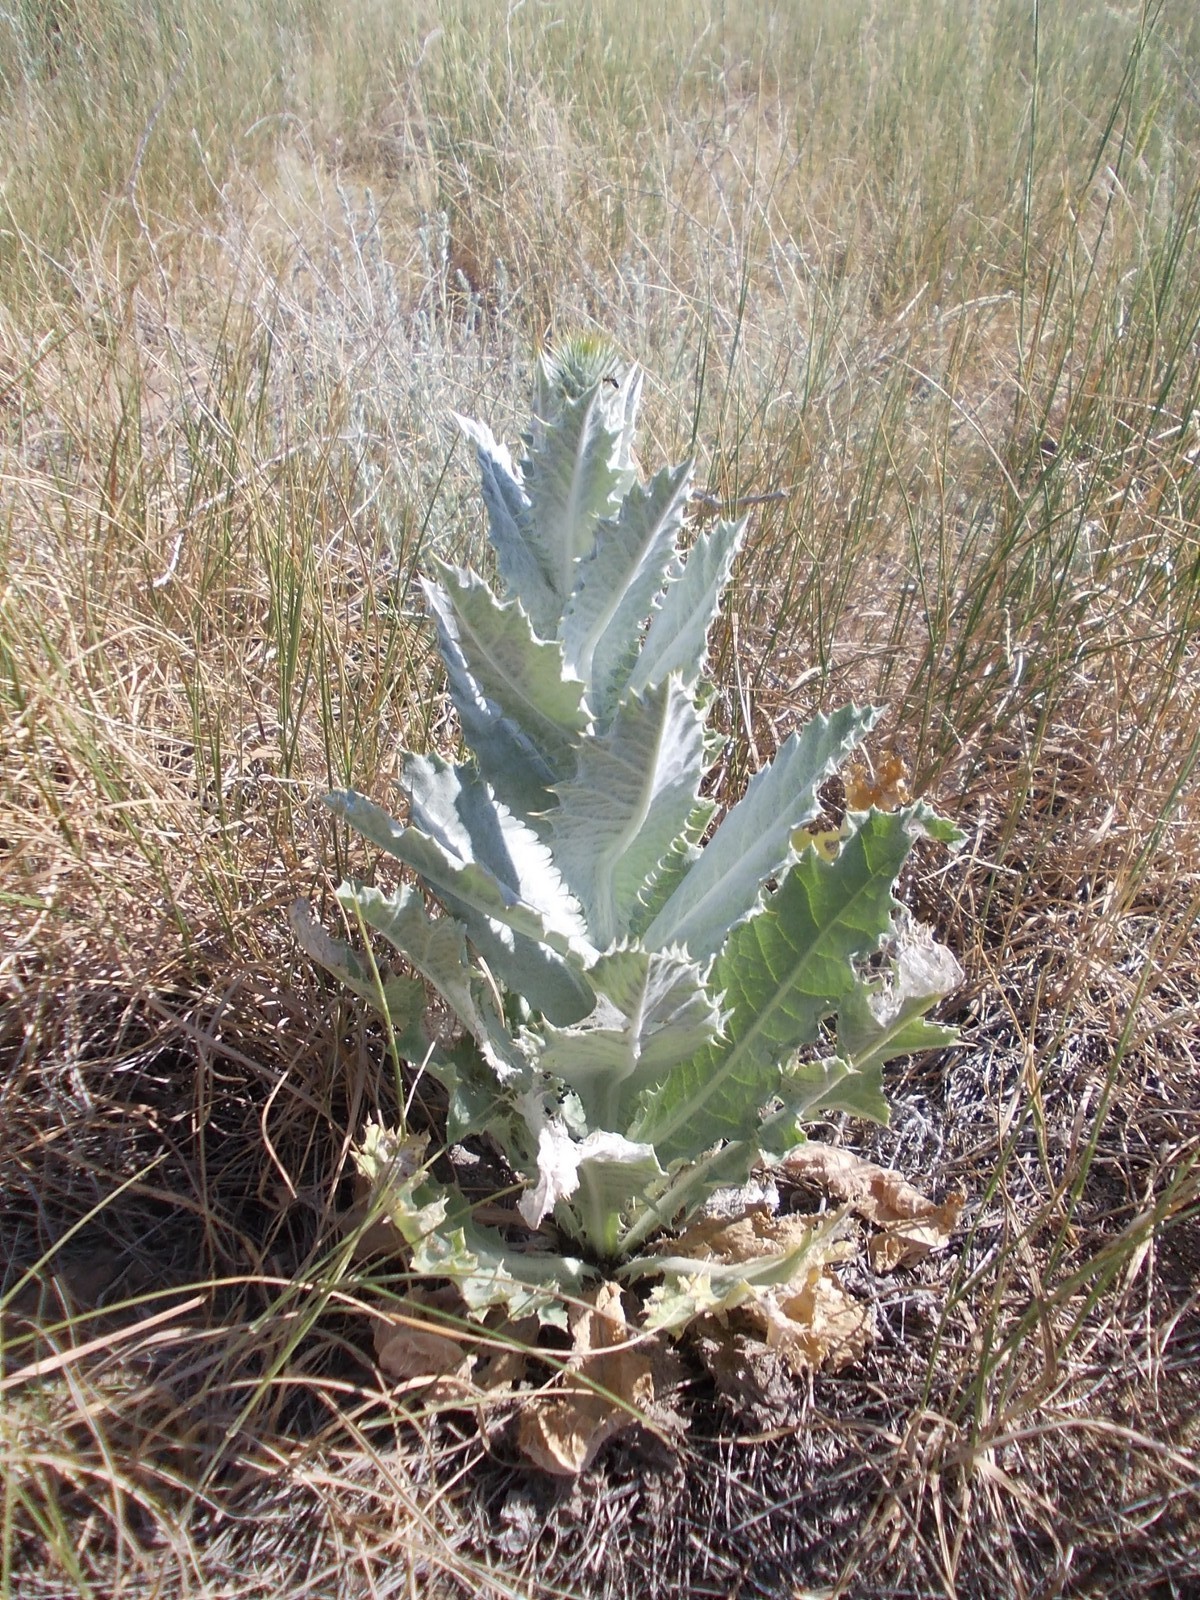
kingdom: Plantae
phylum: Tracheophyta
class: Magnoliopsida
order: Asterales
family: Asteraceae
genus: Onopordum
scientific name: Onopordum acanthium
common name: Scotch thistle
